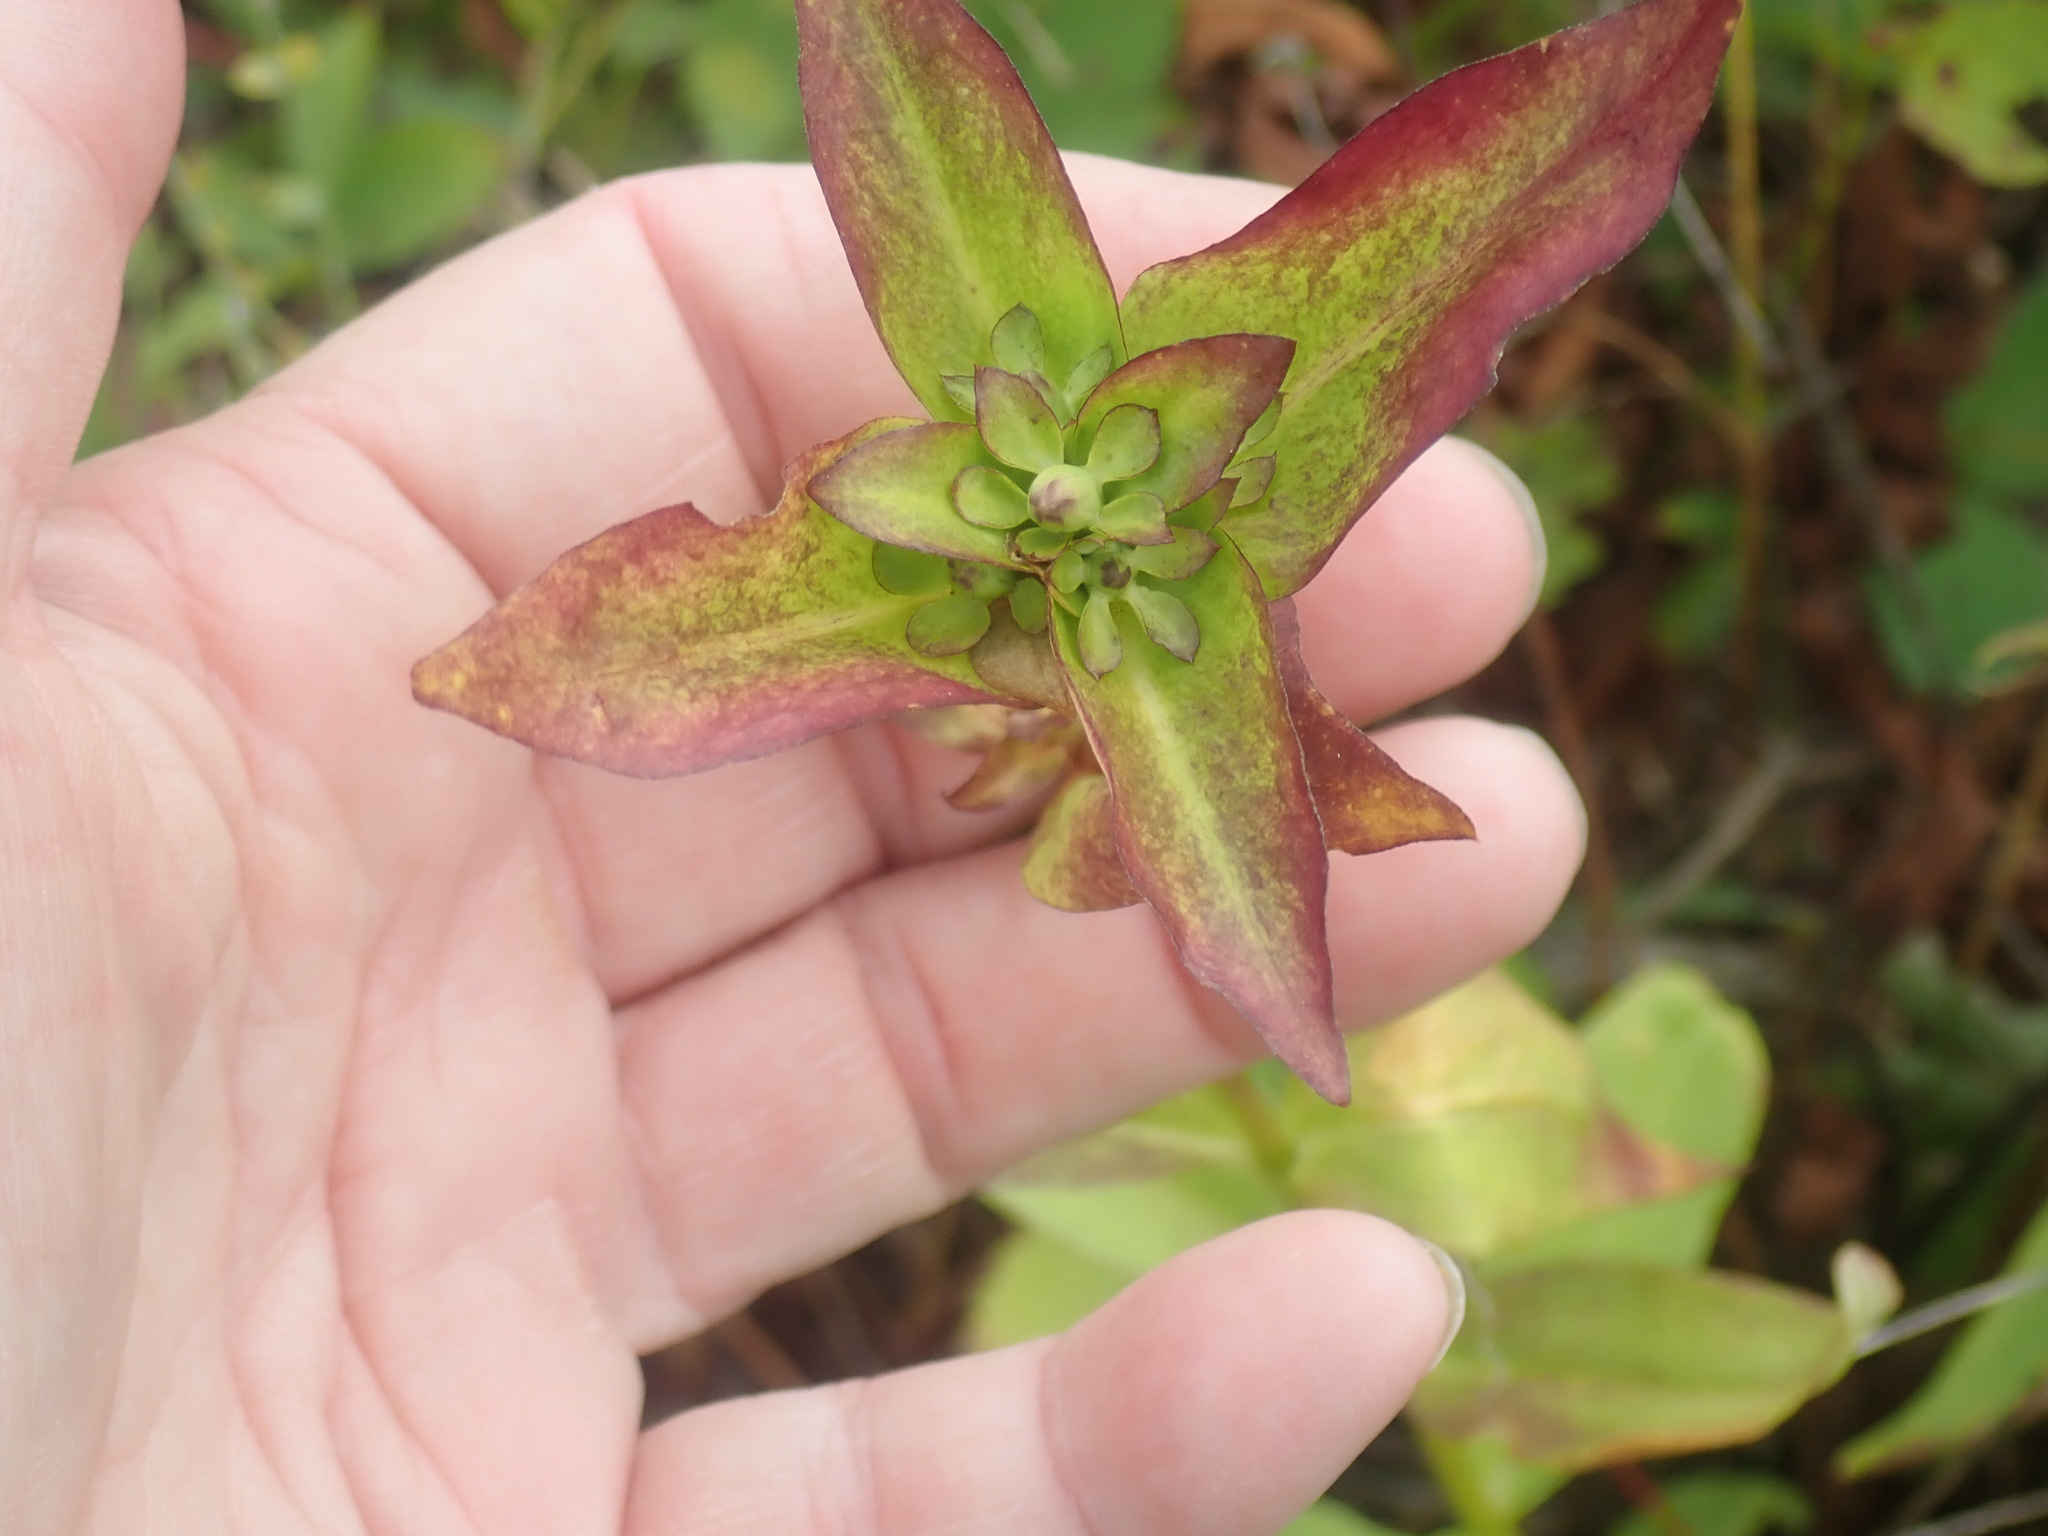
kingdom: Plantae
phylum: Tracheophyta
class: Magnoliopsida
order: Gentianales
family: Gentianaceae
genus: Gentiana
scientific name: Gentiana clausa
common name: Blind gentian
